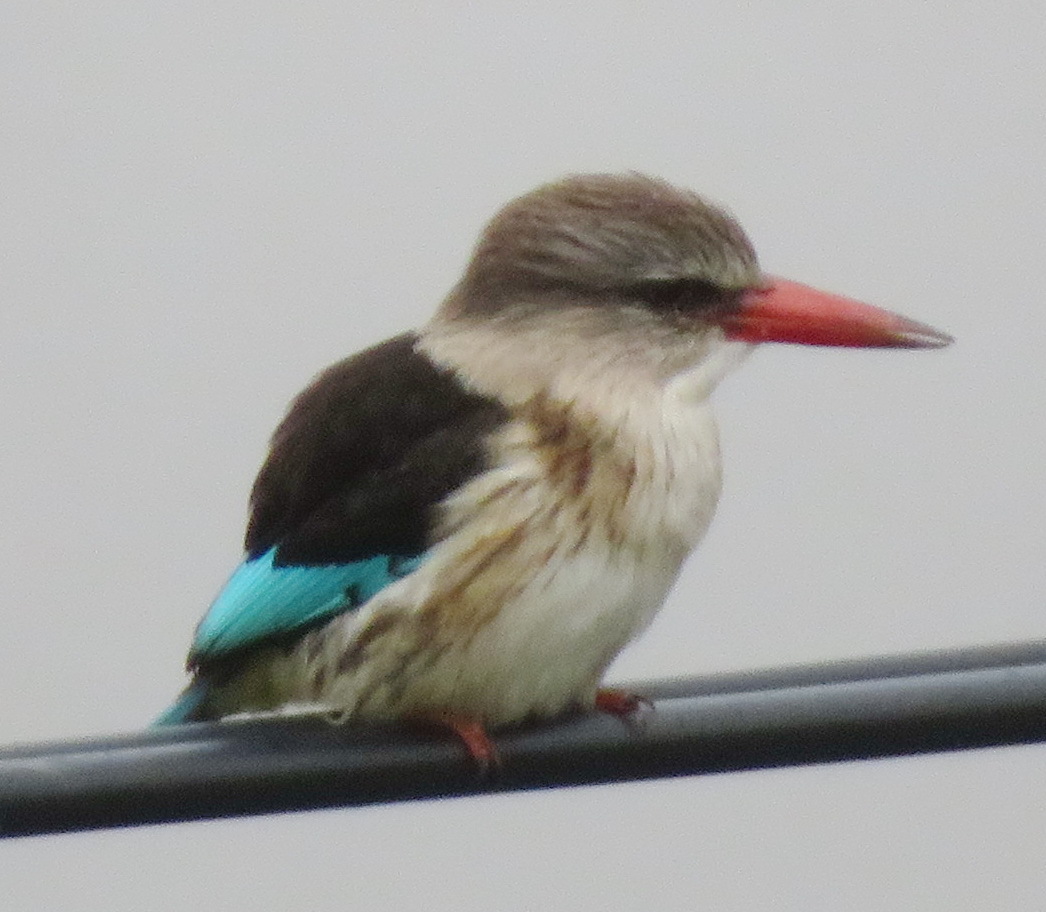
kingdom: Animalia
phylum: Chordata
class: Aves
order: Coraciiformes
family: Alcedinidae
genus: Halcyon
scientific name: Halcyon albiventris
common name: Brown-hooded kingfisher
